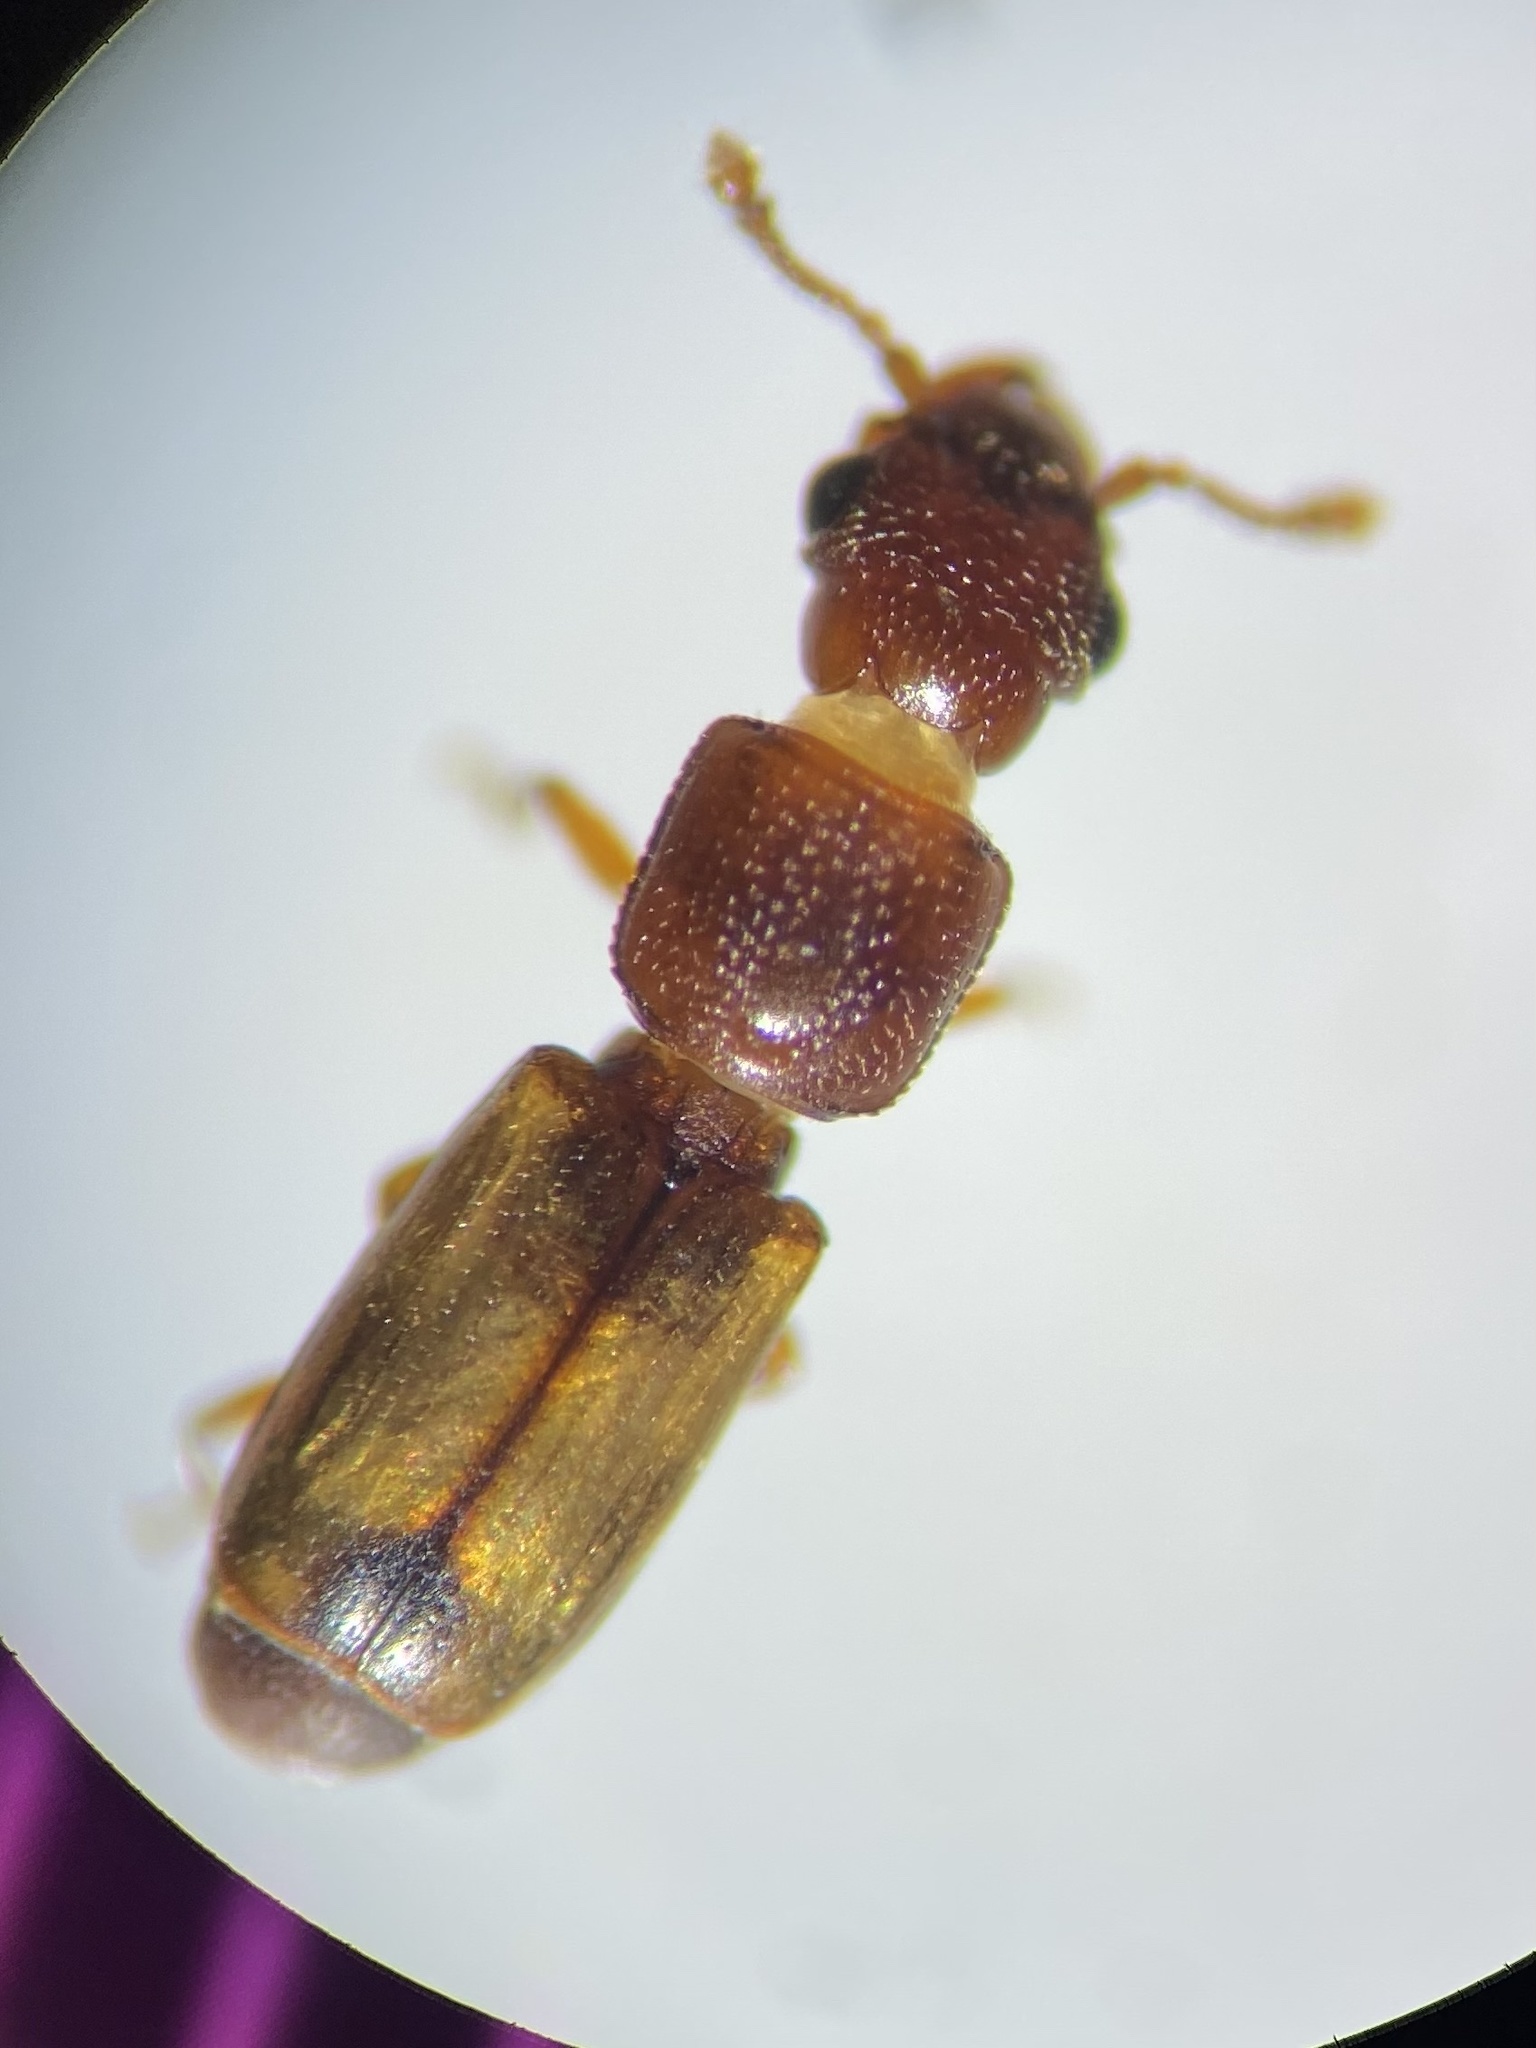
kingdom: Animalia
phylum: Arthropoda
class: Insecta
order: Coleoptera
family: Monotomidae
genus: Europs
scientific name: Europs pallipennis
